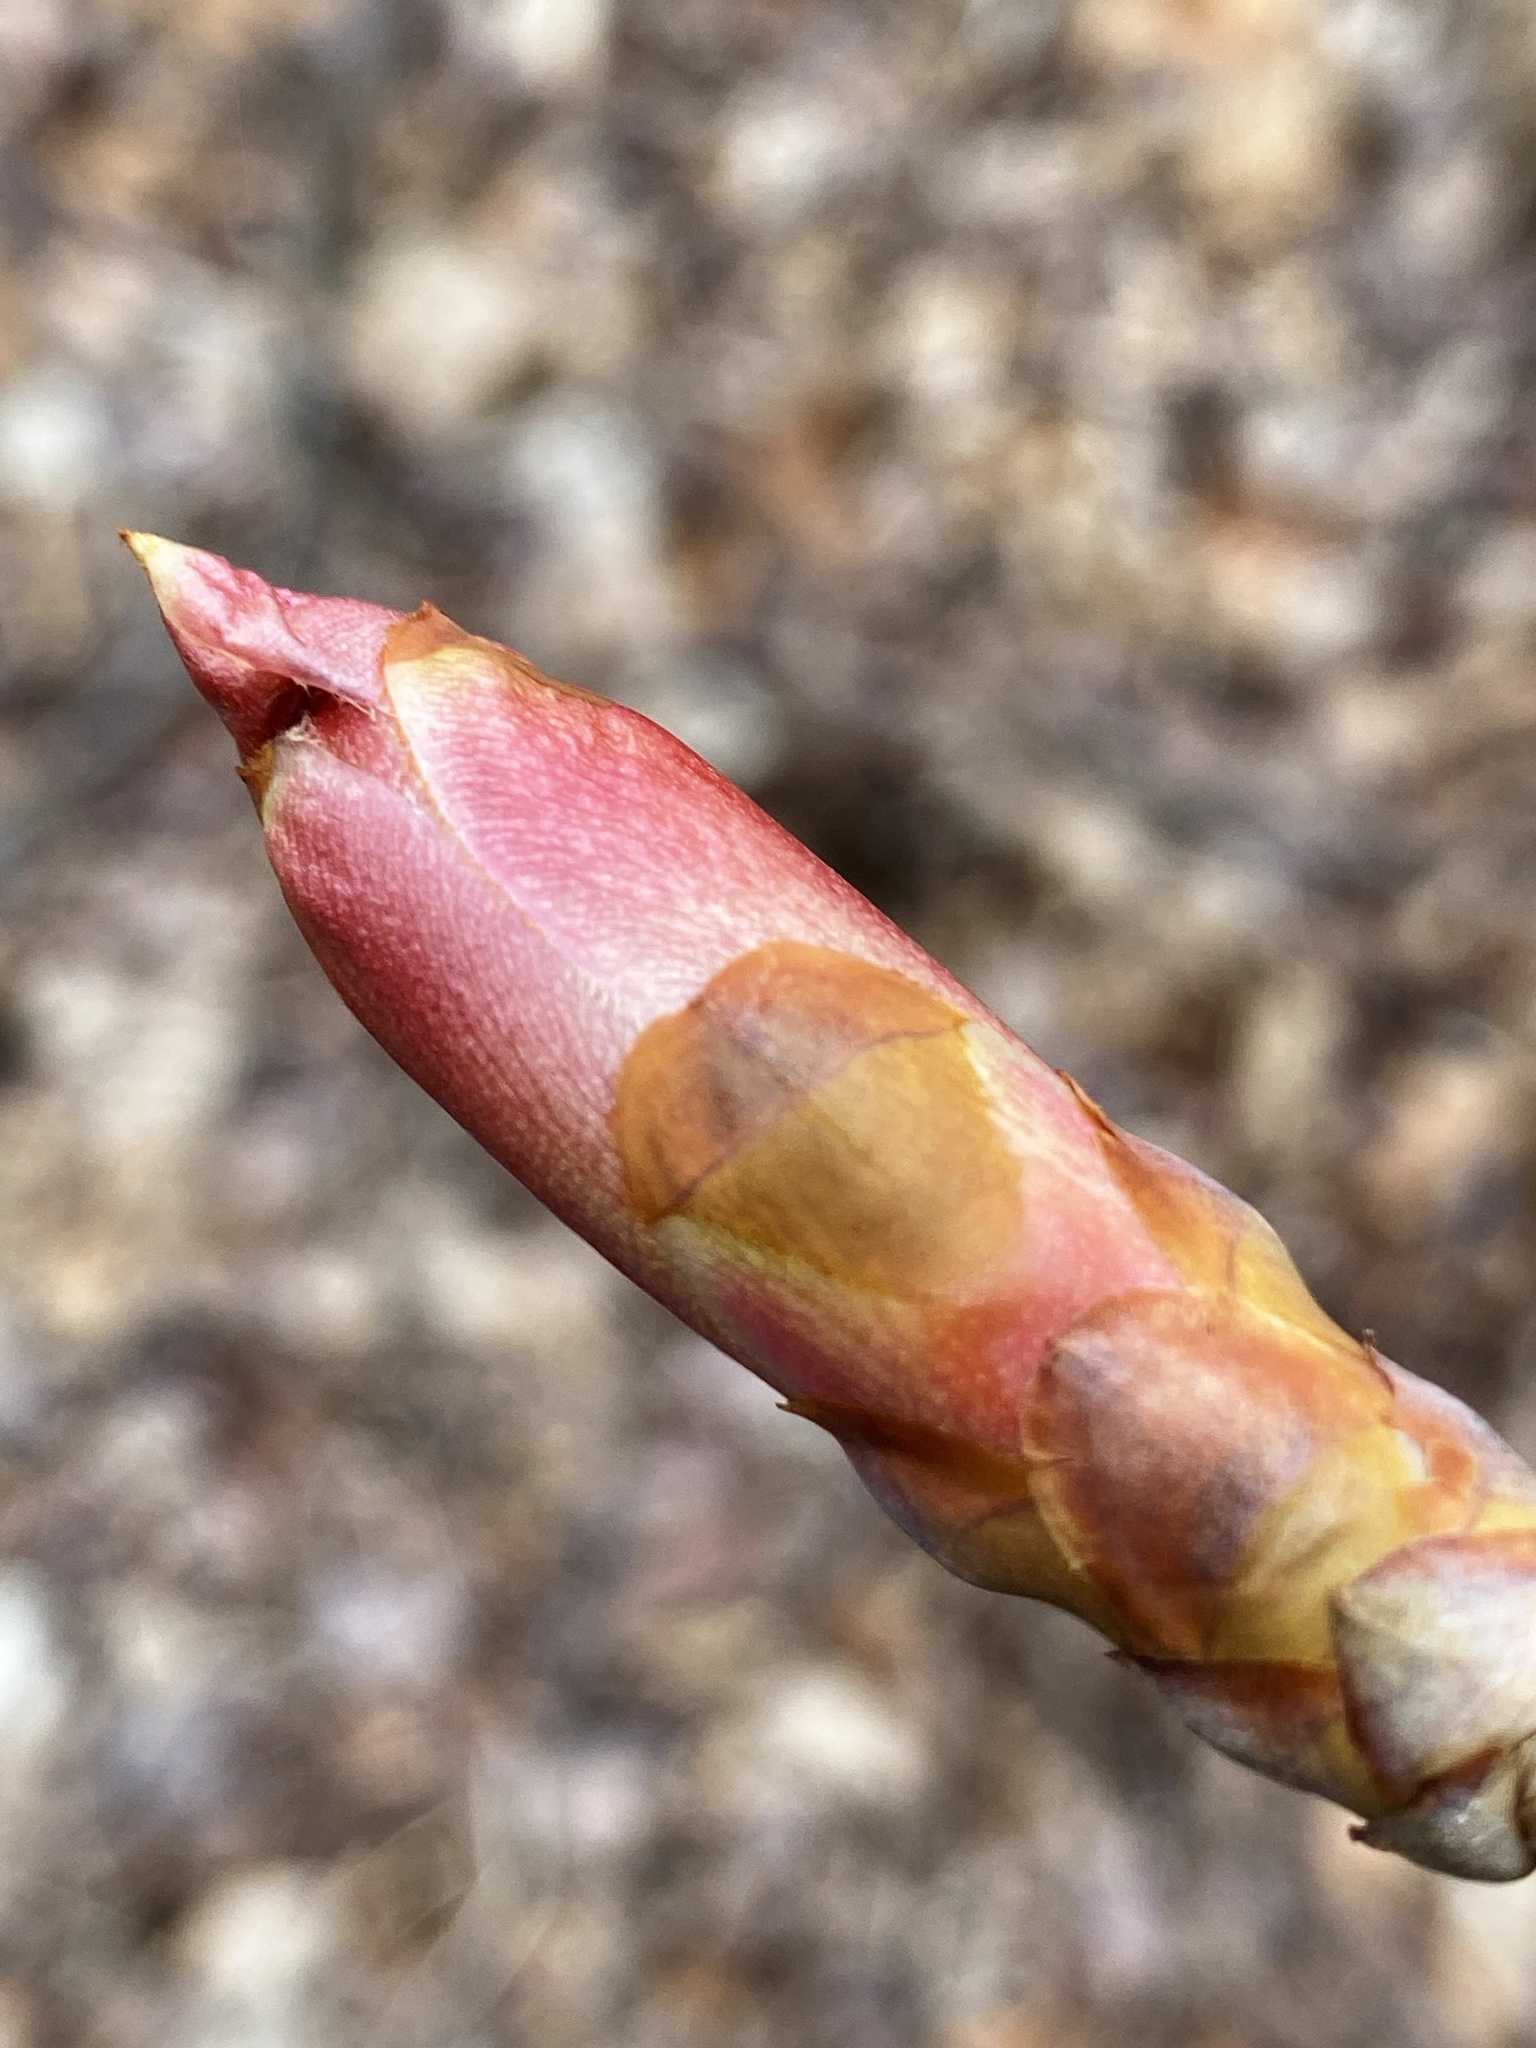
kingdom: Plantae
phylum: Tracheophyta
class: Magnoliopsida
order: Sapindales
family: Sapindaceae
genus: Aesculus
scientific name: Aesculus flava
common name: Yellow buckeye
